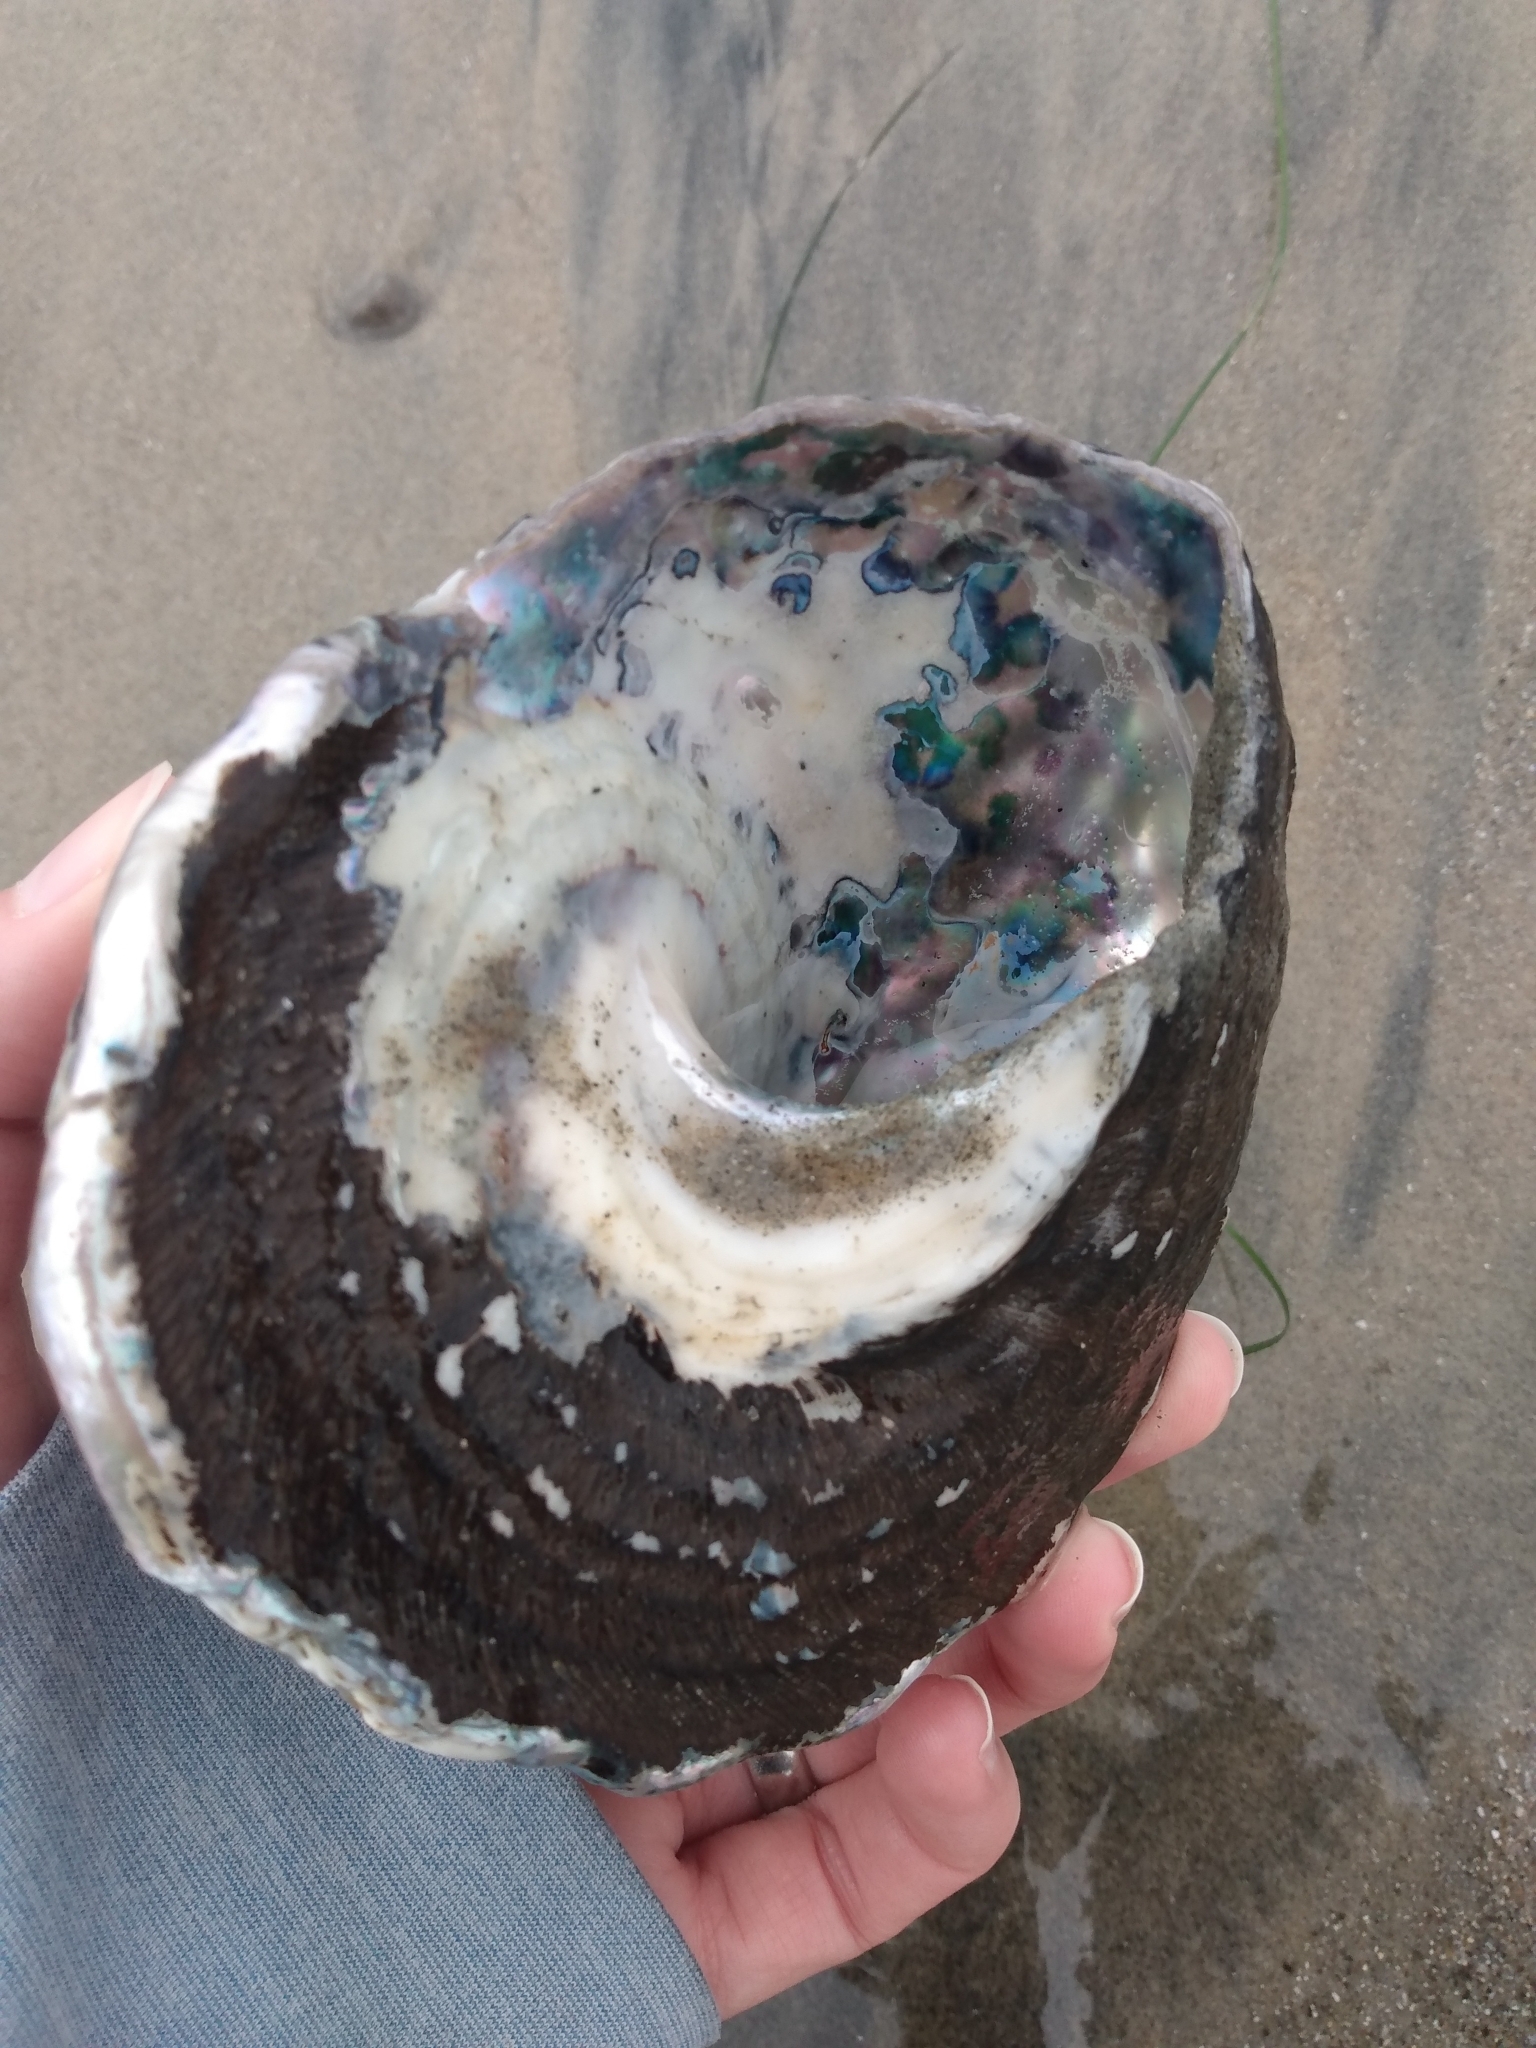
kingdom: Animalia
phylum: Mollusca
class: Gastropoda
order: Trochida
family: Turbinidae
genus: Megastraea
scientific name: Megastraea undosa
